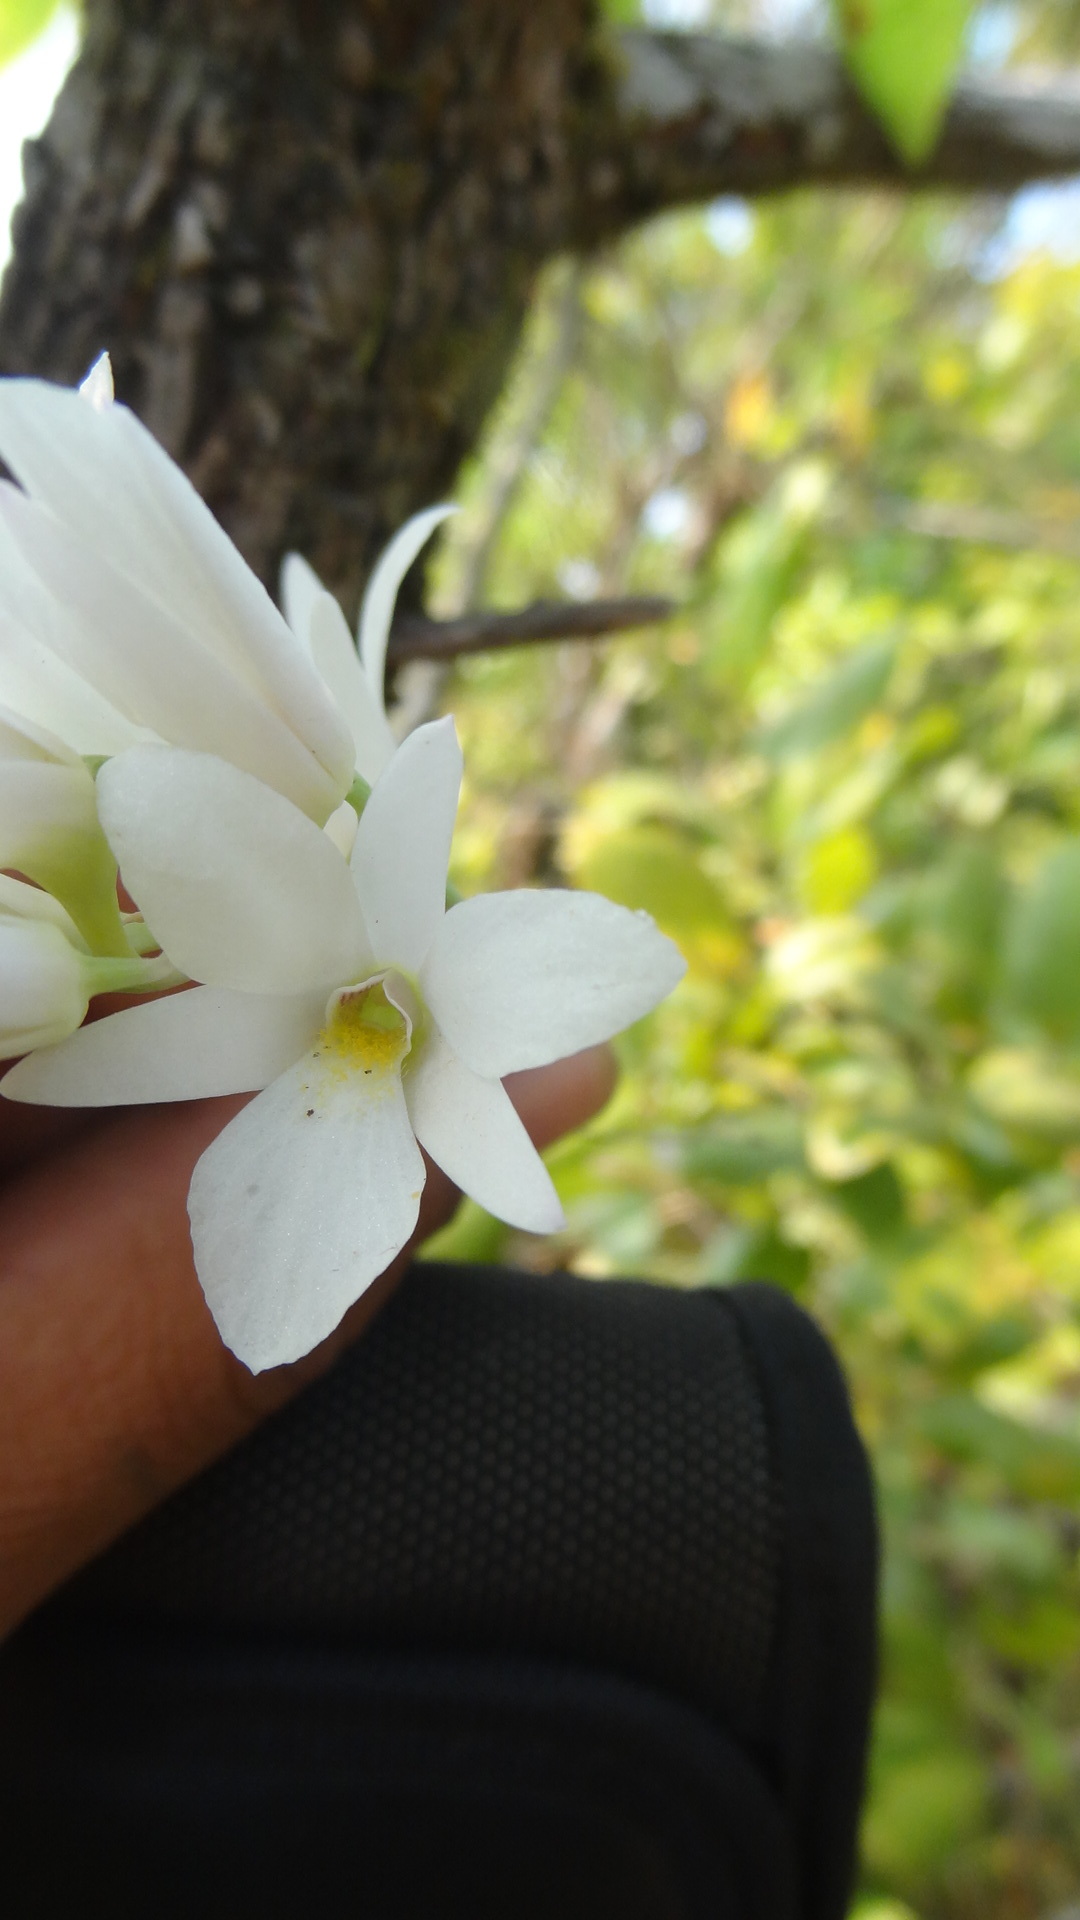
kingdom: Plantae
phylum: Tracheophyta
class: Liliopsida
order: Asparagales
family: Orchidaceae
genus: Dendrobium
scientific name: Dendrobium barbatulum
